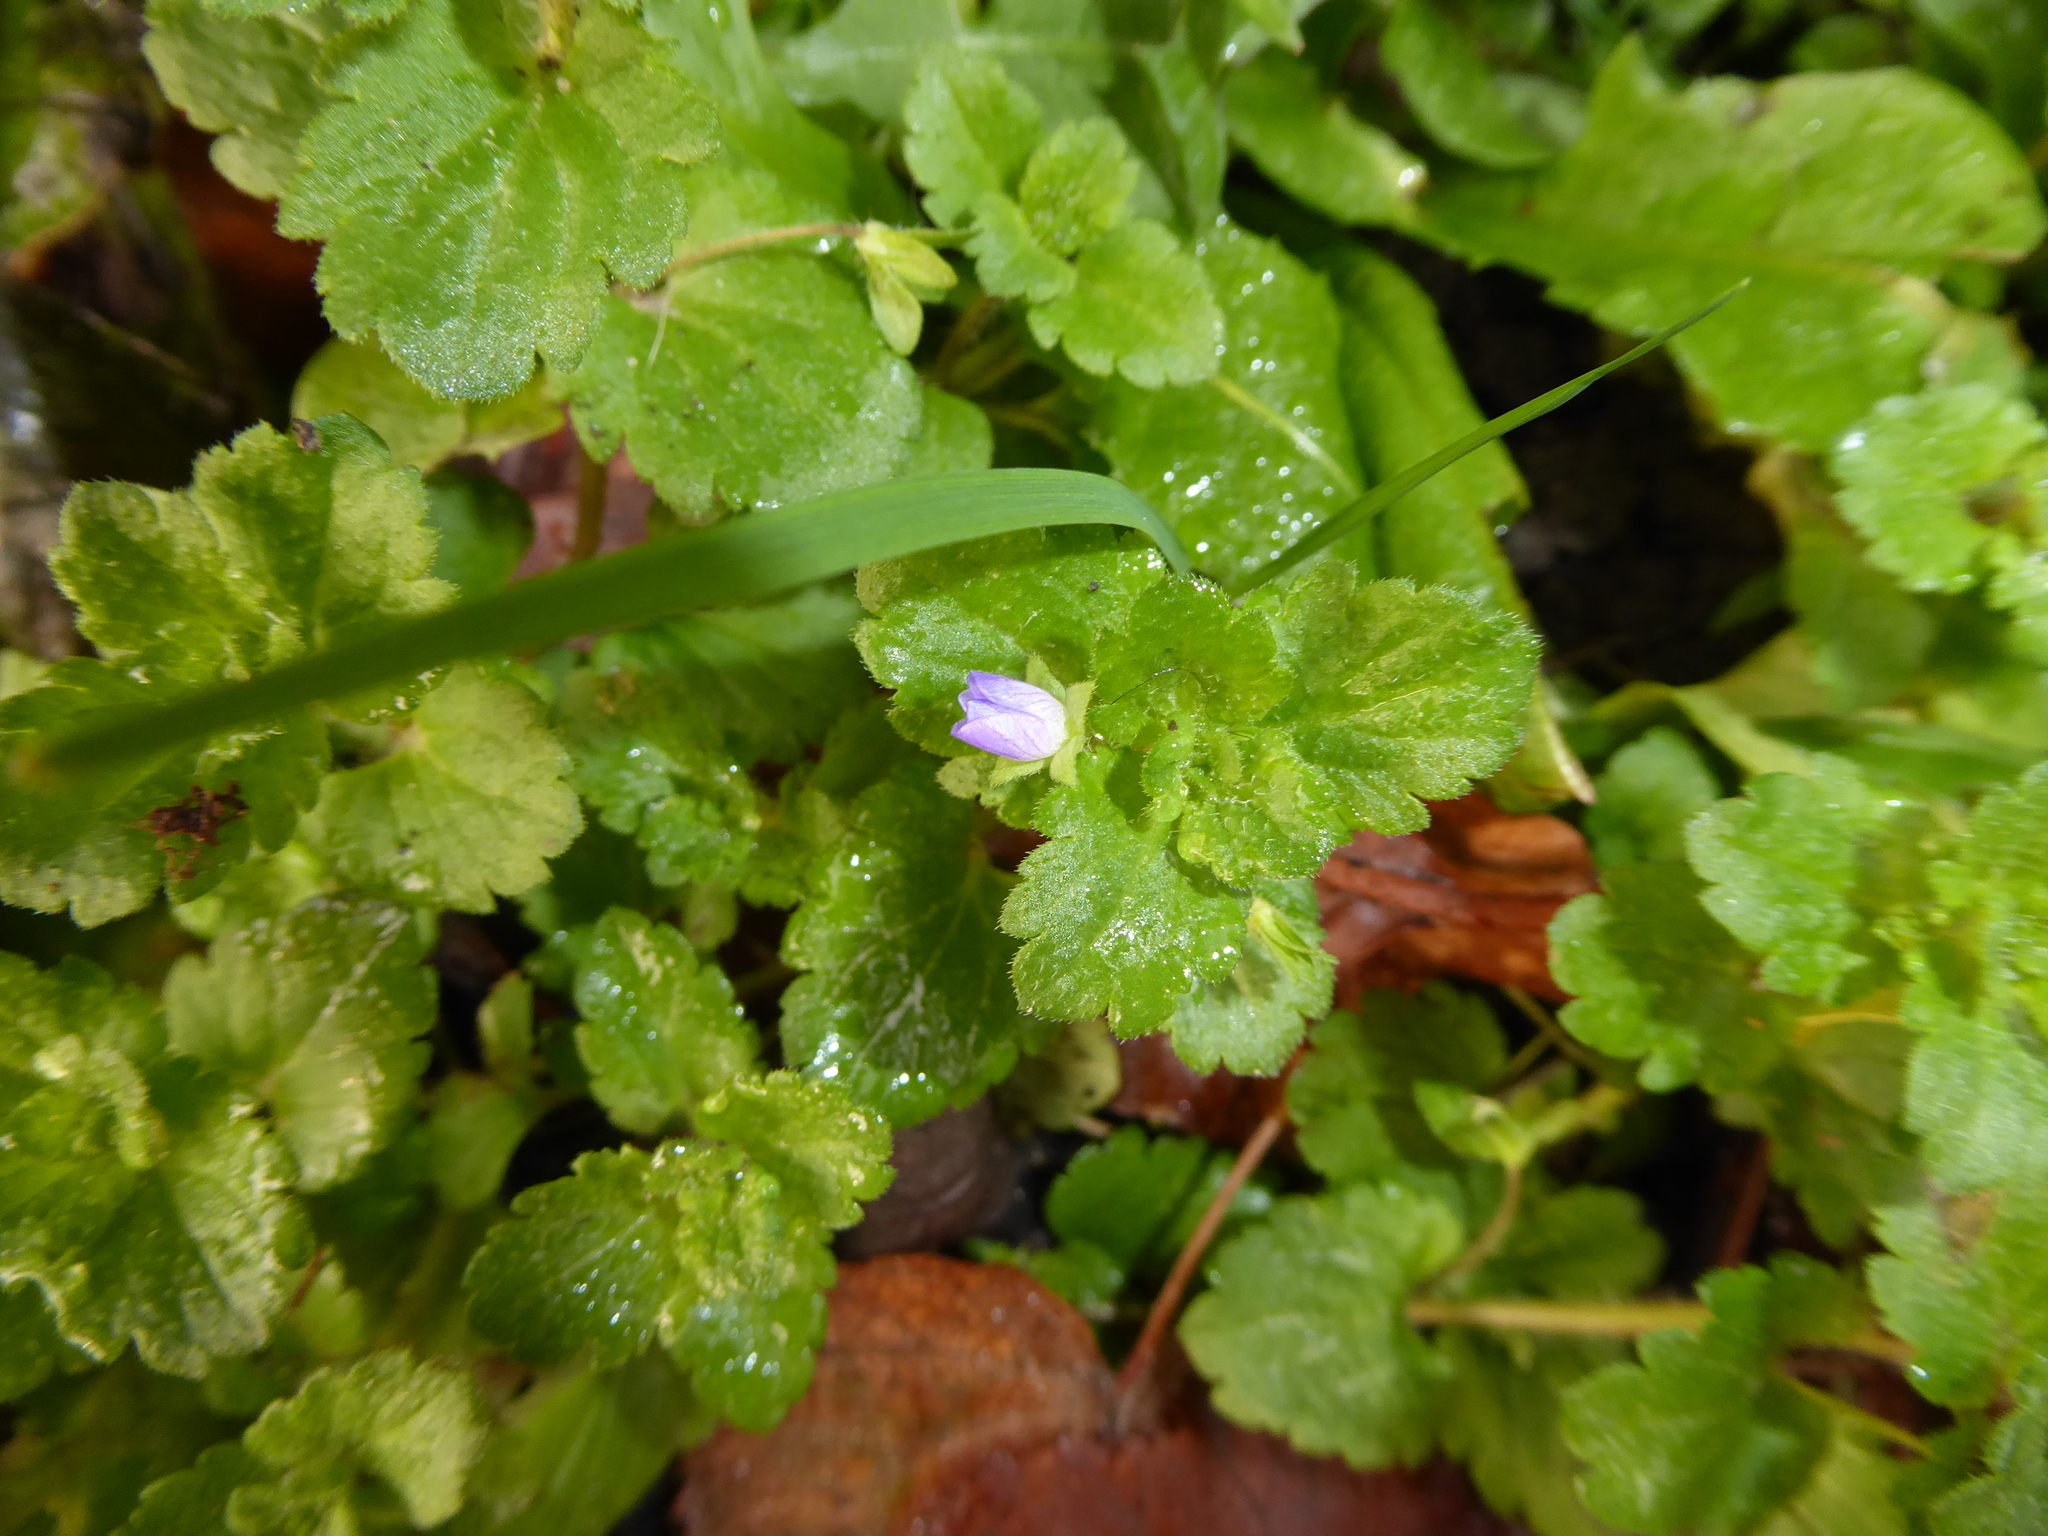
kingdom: Plantae
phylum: Tracheophyta
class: Magnoliopsida
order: Lamiales
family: Plantaginaceae
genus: Veronica
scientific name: Veronica persica
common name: Common field-speedwell
